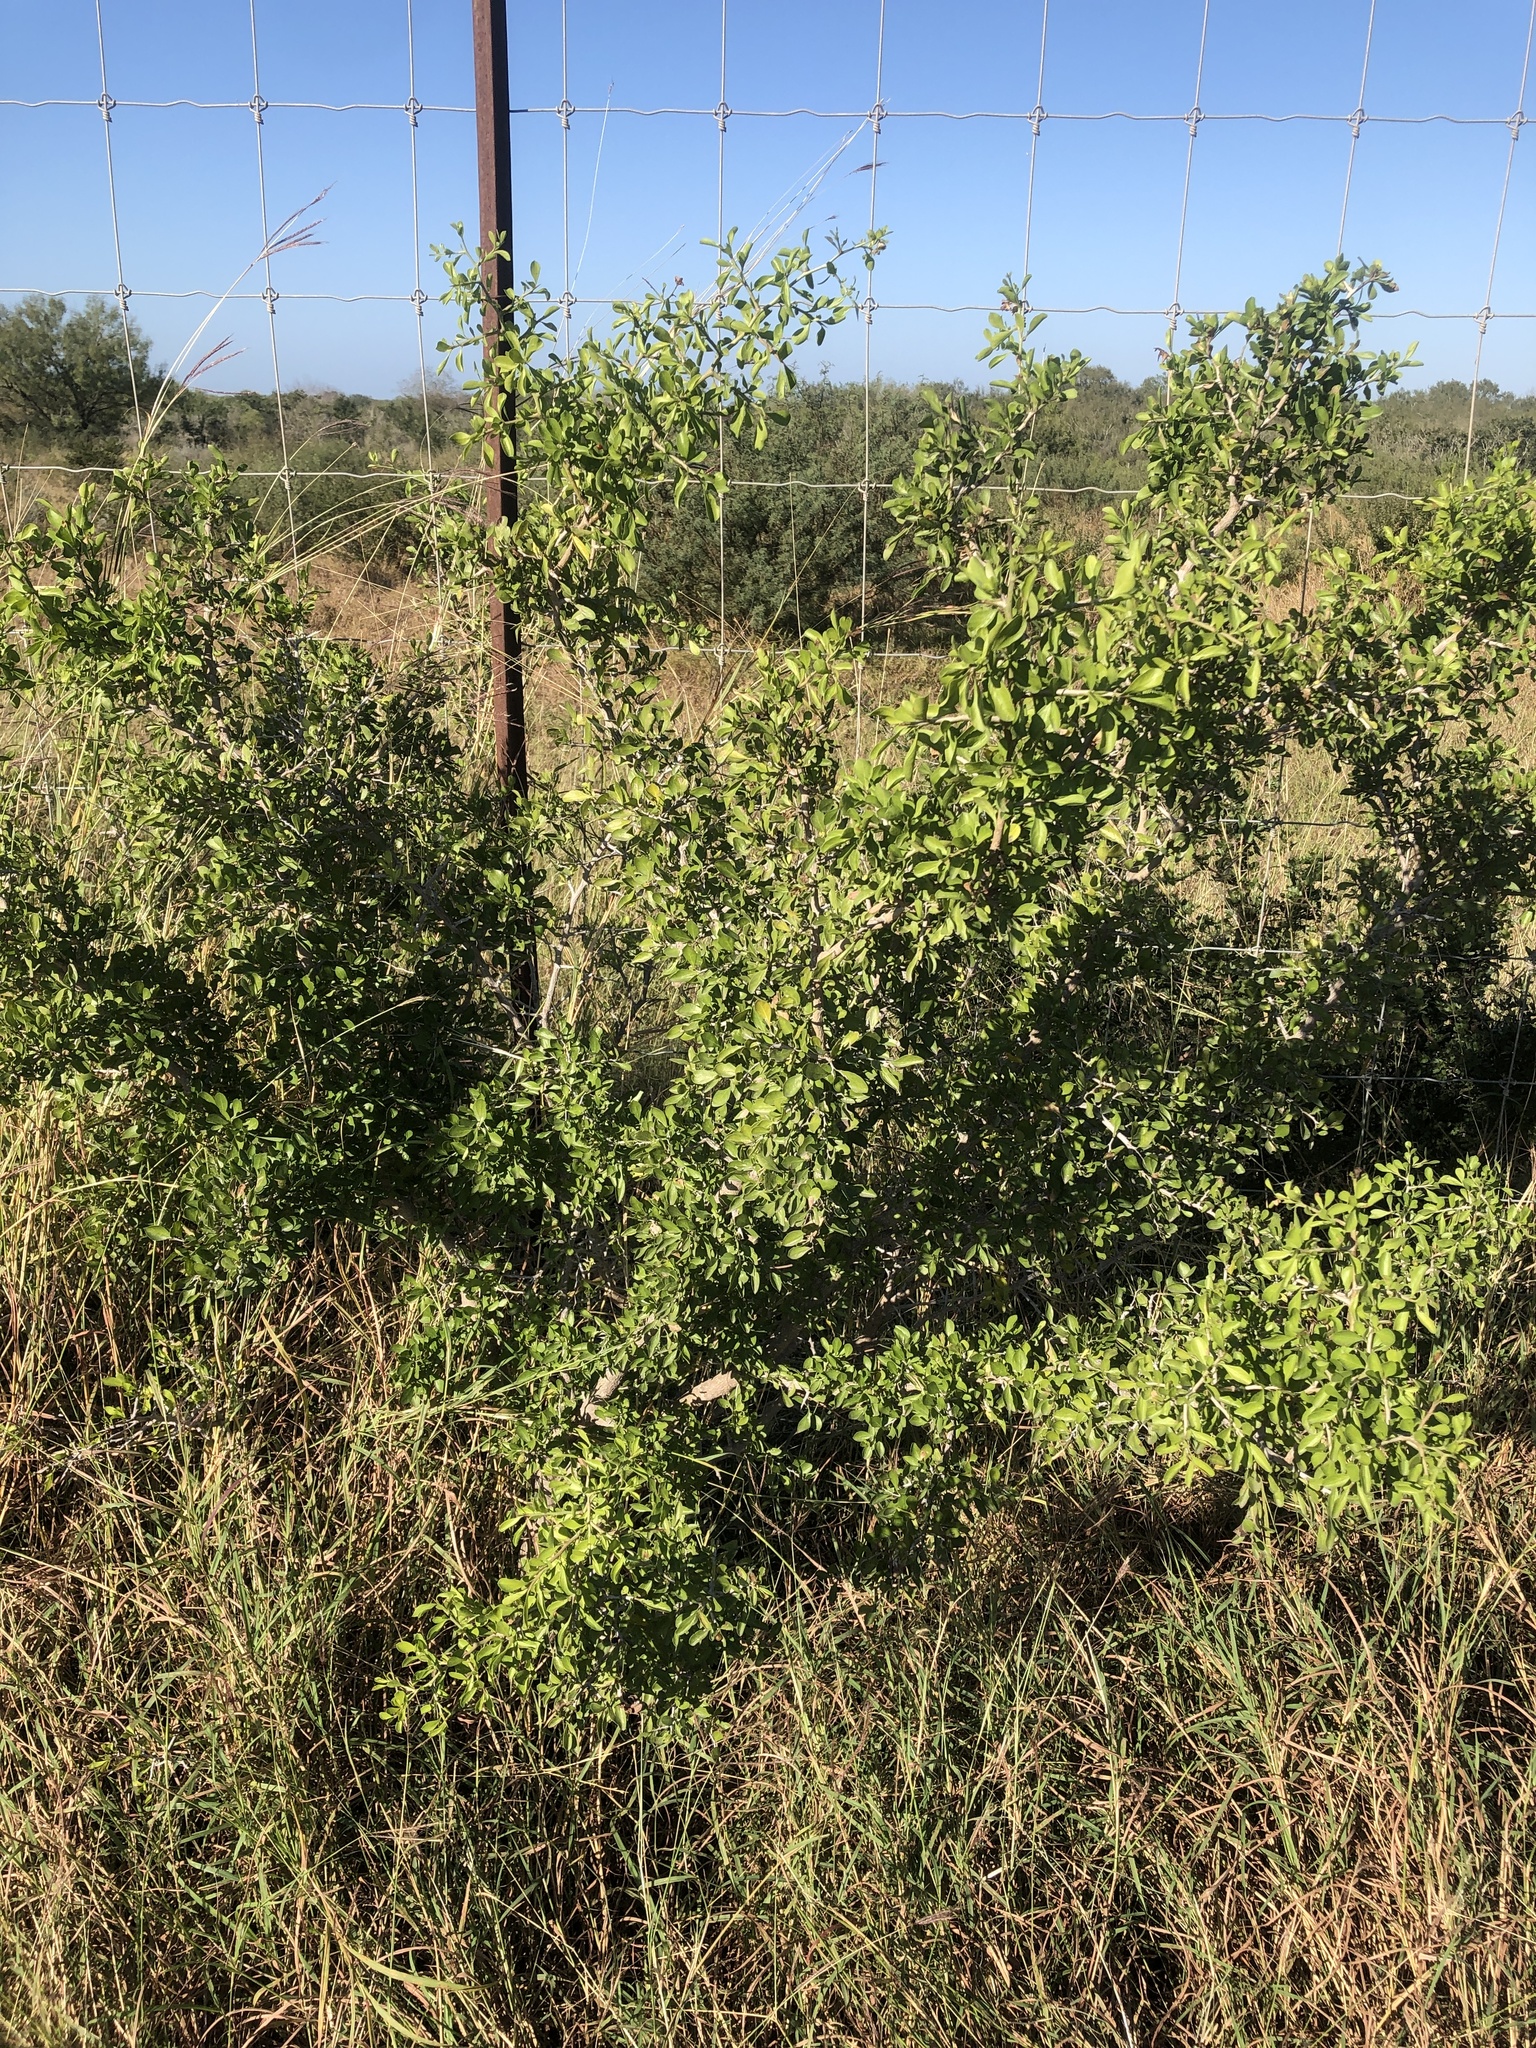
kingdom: Plantae
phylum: Tracheophyta
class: Magnoliopsida
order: Rosales
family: Rhamnaceae
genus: Condalia
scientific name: Condalia hookeri
